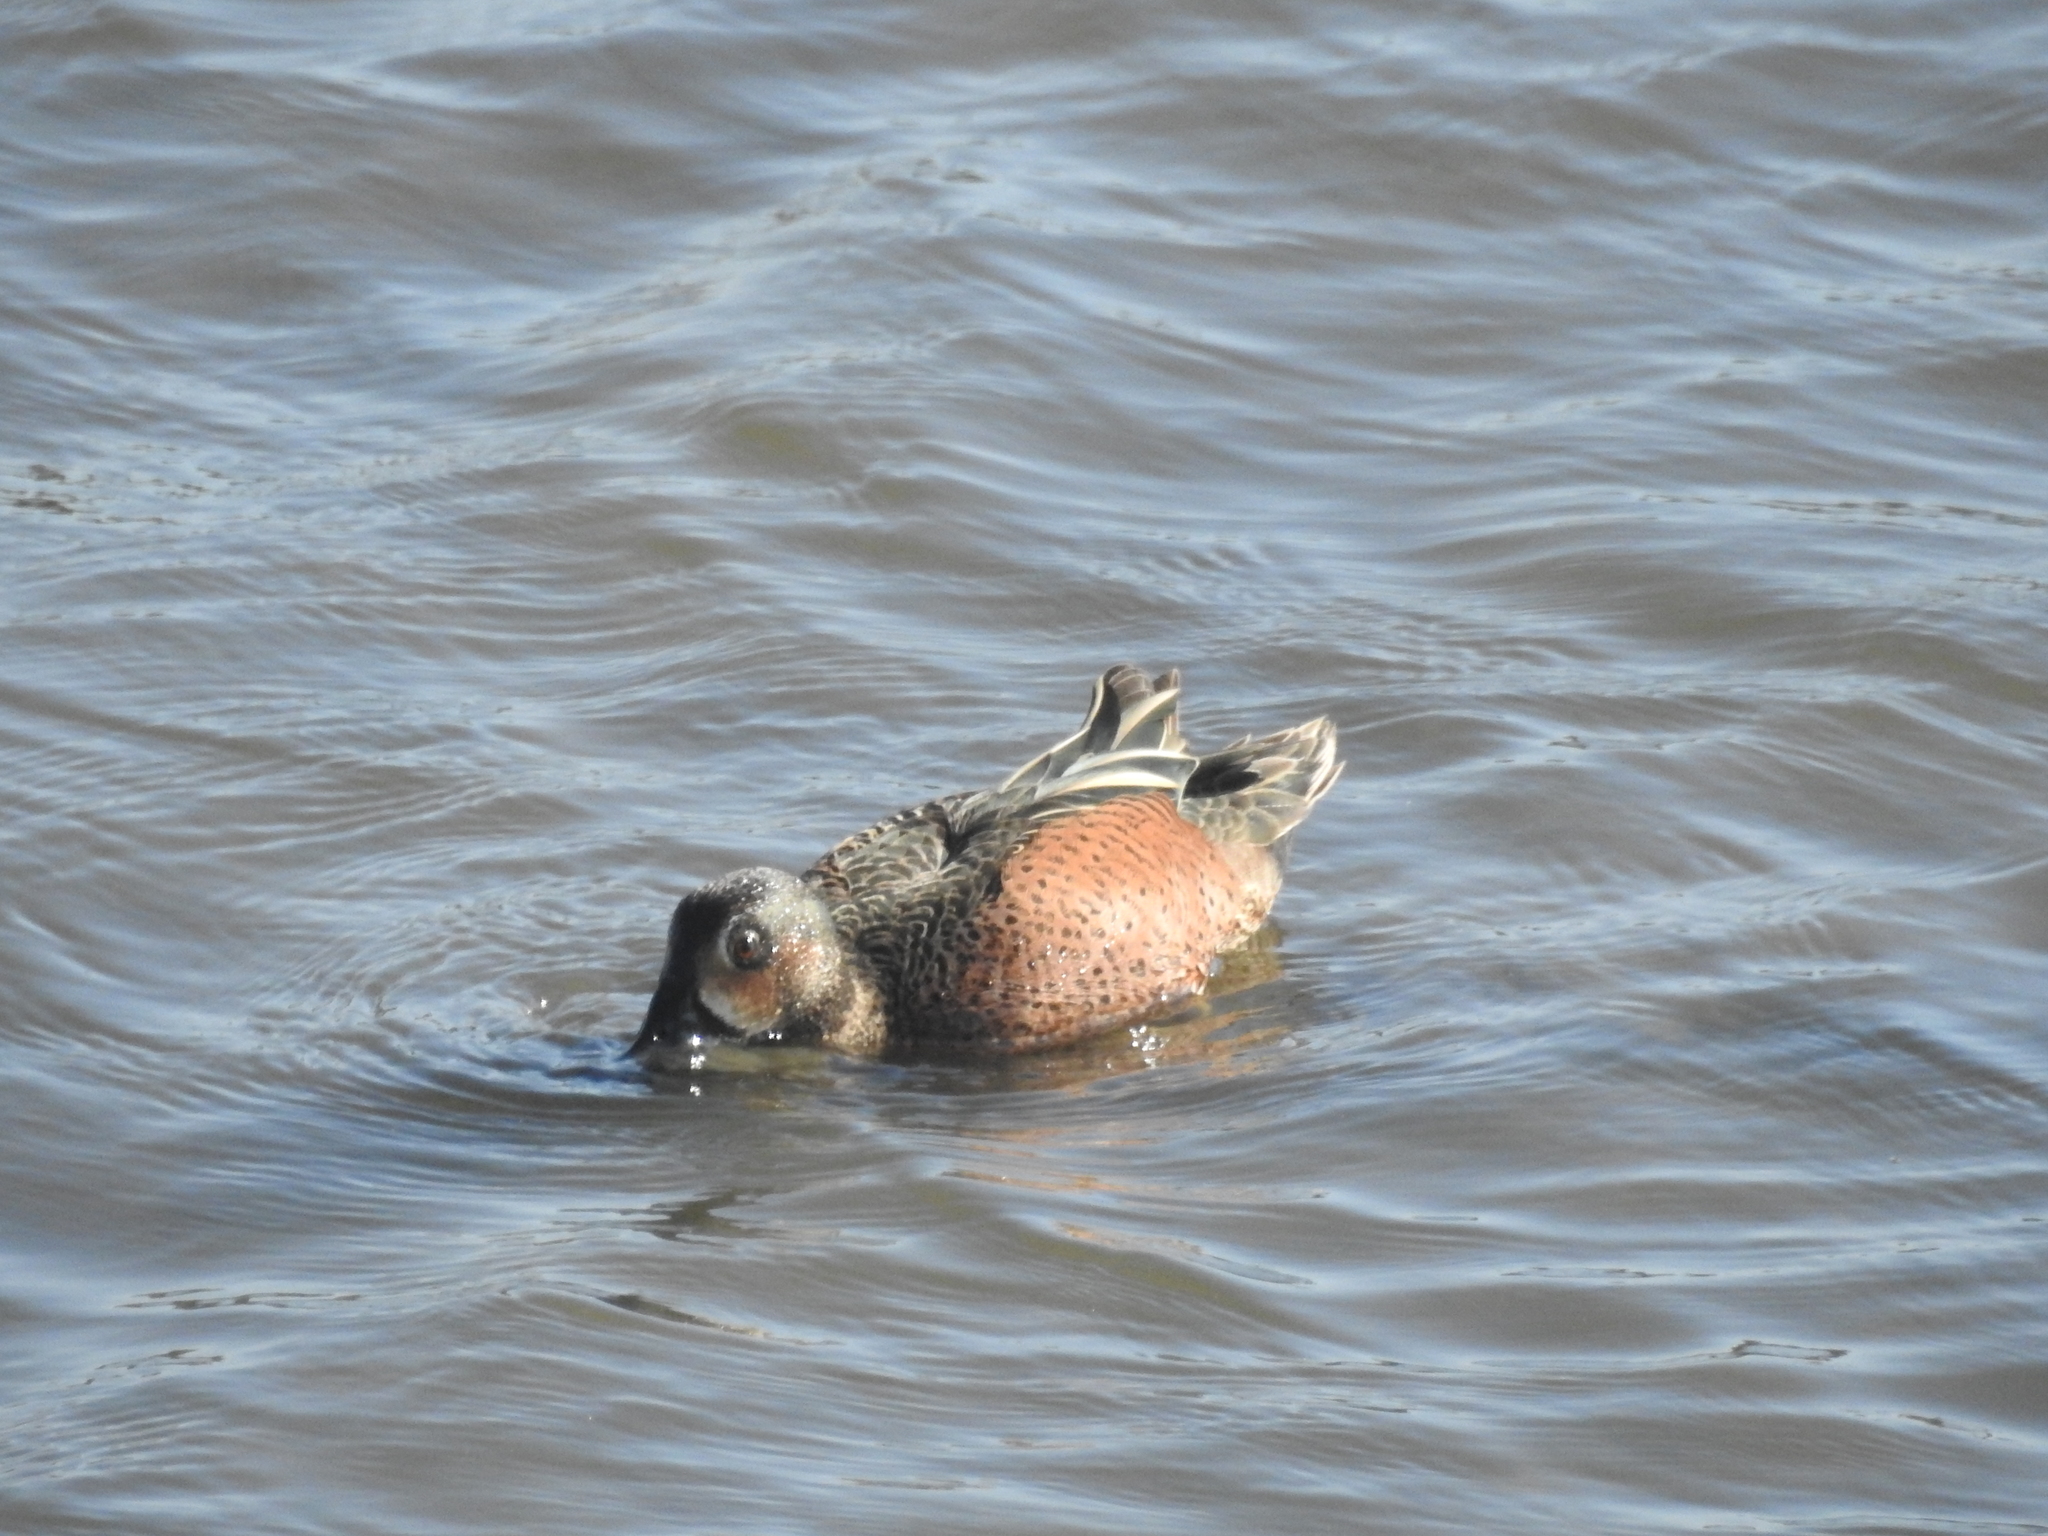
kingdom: Animalia
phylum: Chordata
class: Aves
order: Anseriformes
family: Anatidae
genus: Spatula
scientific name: Spatula
